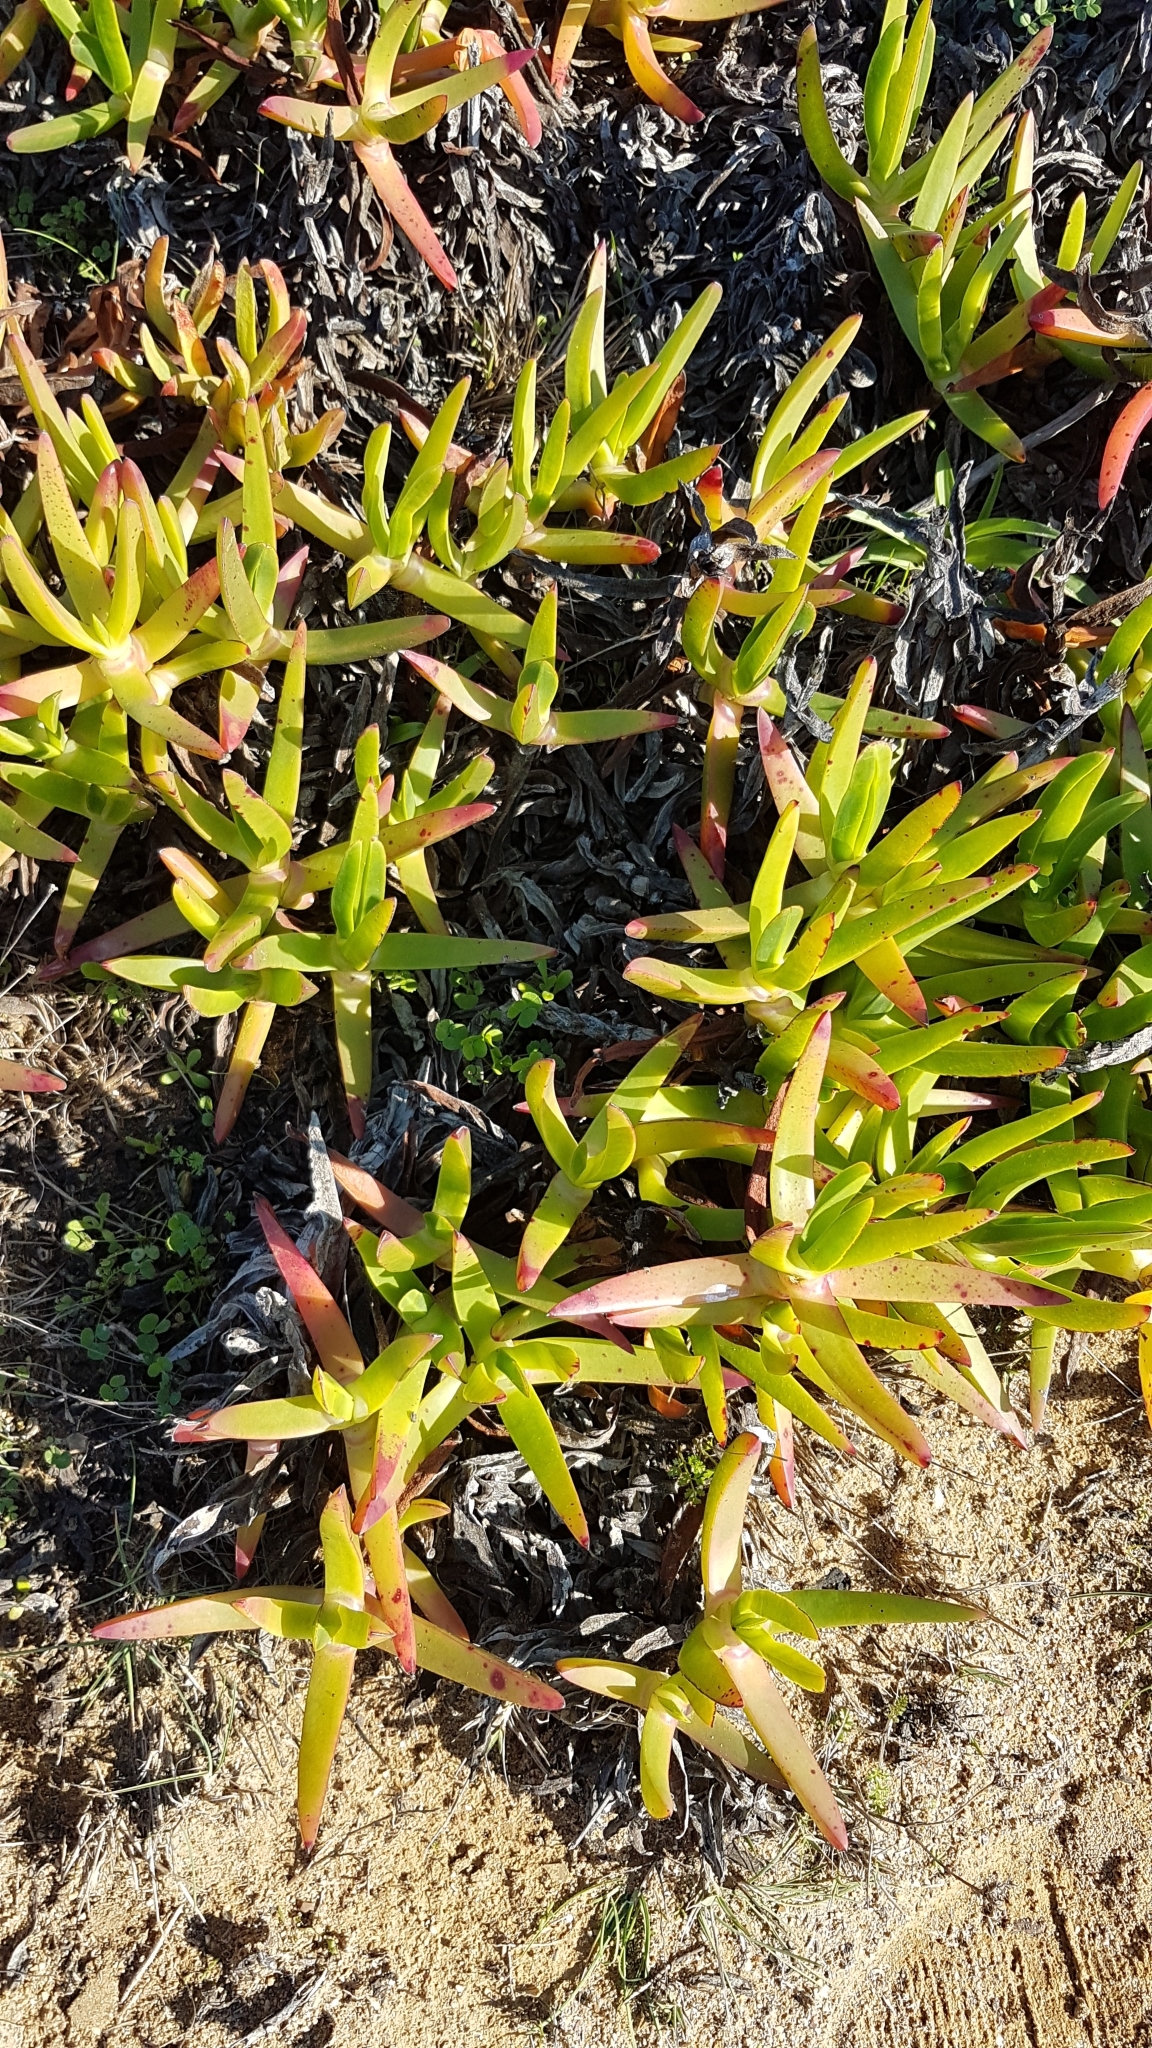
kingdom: Plantae
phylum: Tracheophyta
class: Magnoliopsida
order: Caryophyllales
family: Aizoaceae
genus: Carpobrotus
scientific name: Carpobrotus edulis
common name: Hottentot-fig
